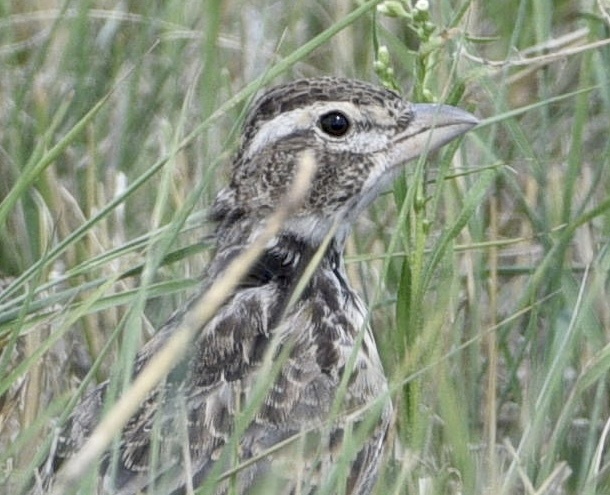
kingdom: Animalia
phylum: Chordata
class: Aves
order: Passeriformes
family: Alaudidae
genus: Melanocorypha
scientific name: Melanocorypha calandra
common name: Calandra lark
